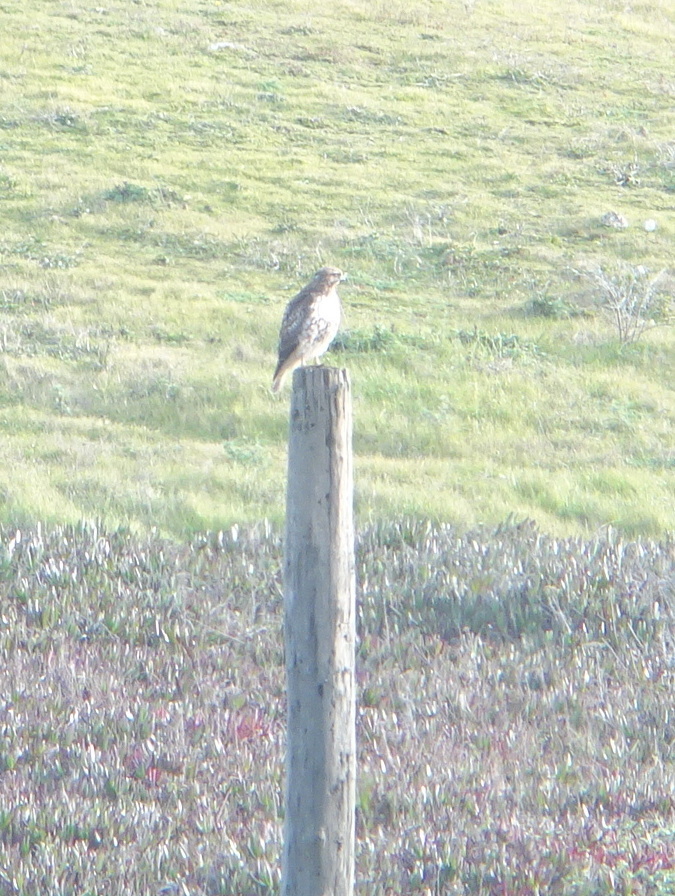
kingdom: Animalia
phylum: Chordata
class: Aves
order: Accipitriformes
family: Accipitridae
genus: Buteo
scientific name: Buteo jamaicensis
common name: Red-tailed hawk
